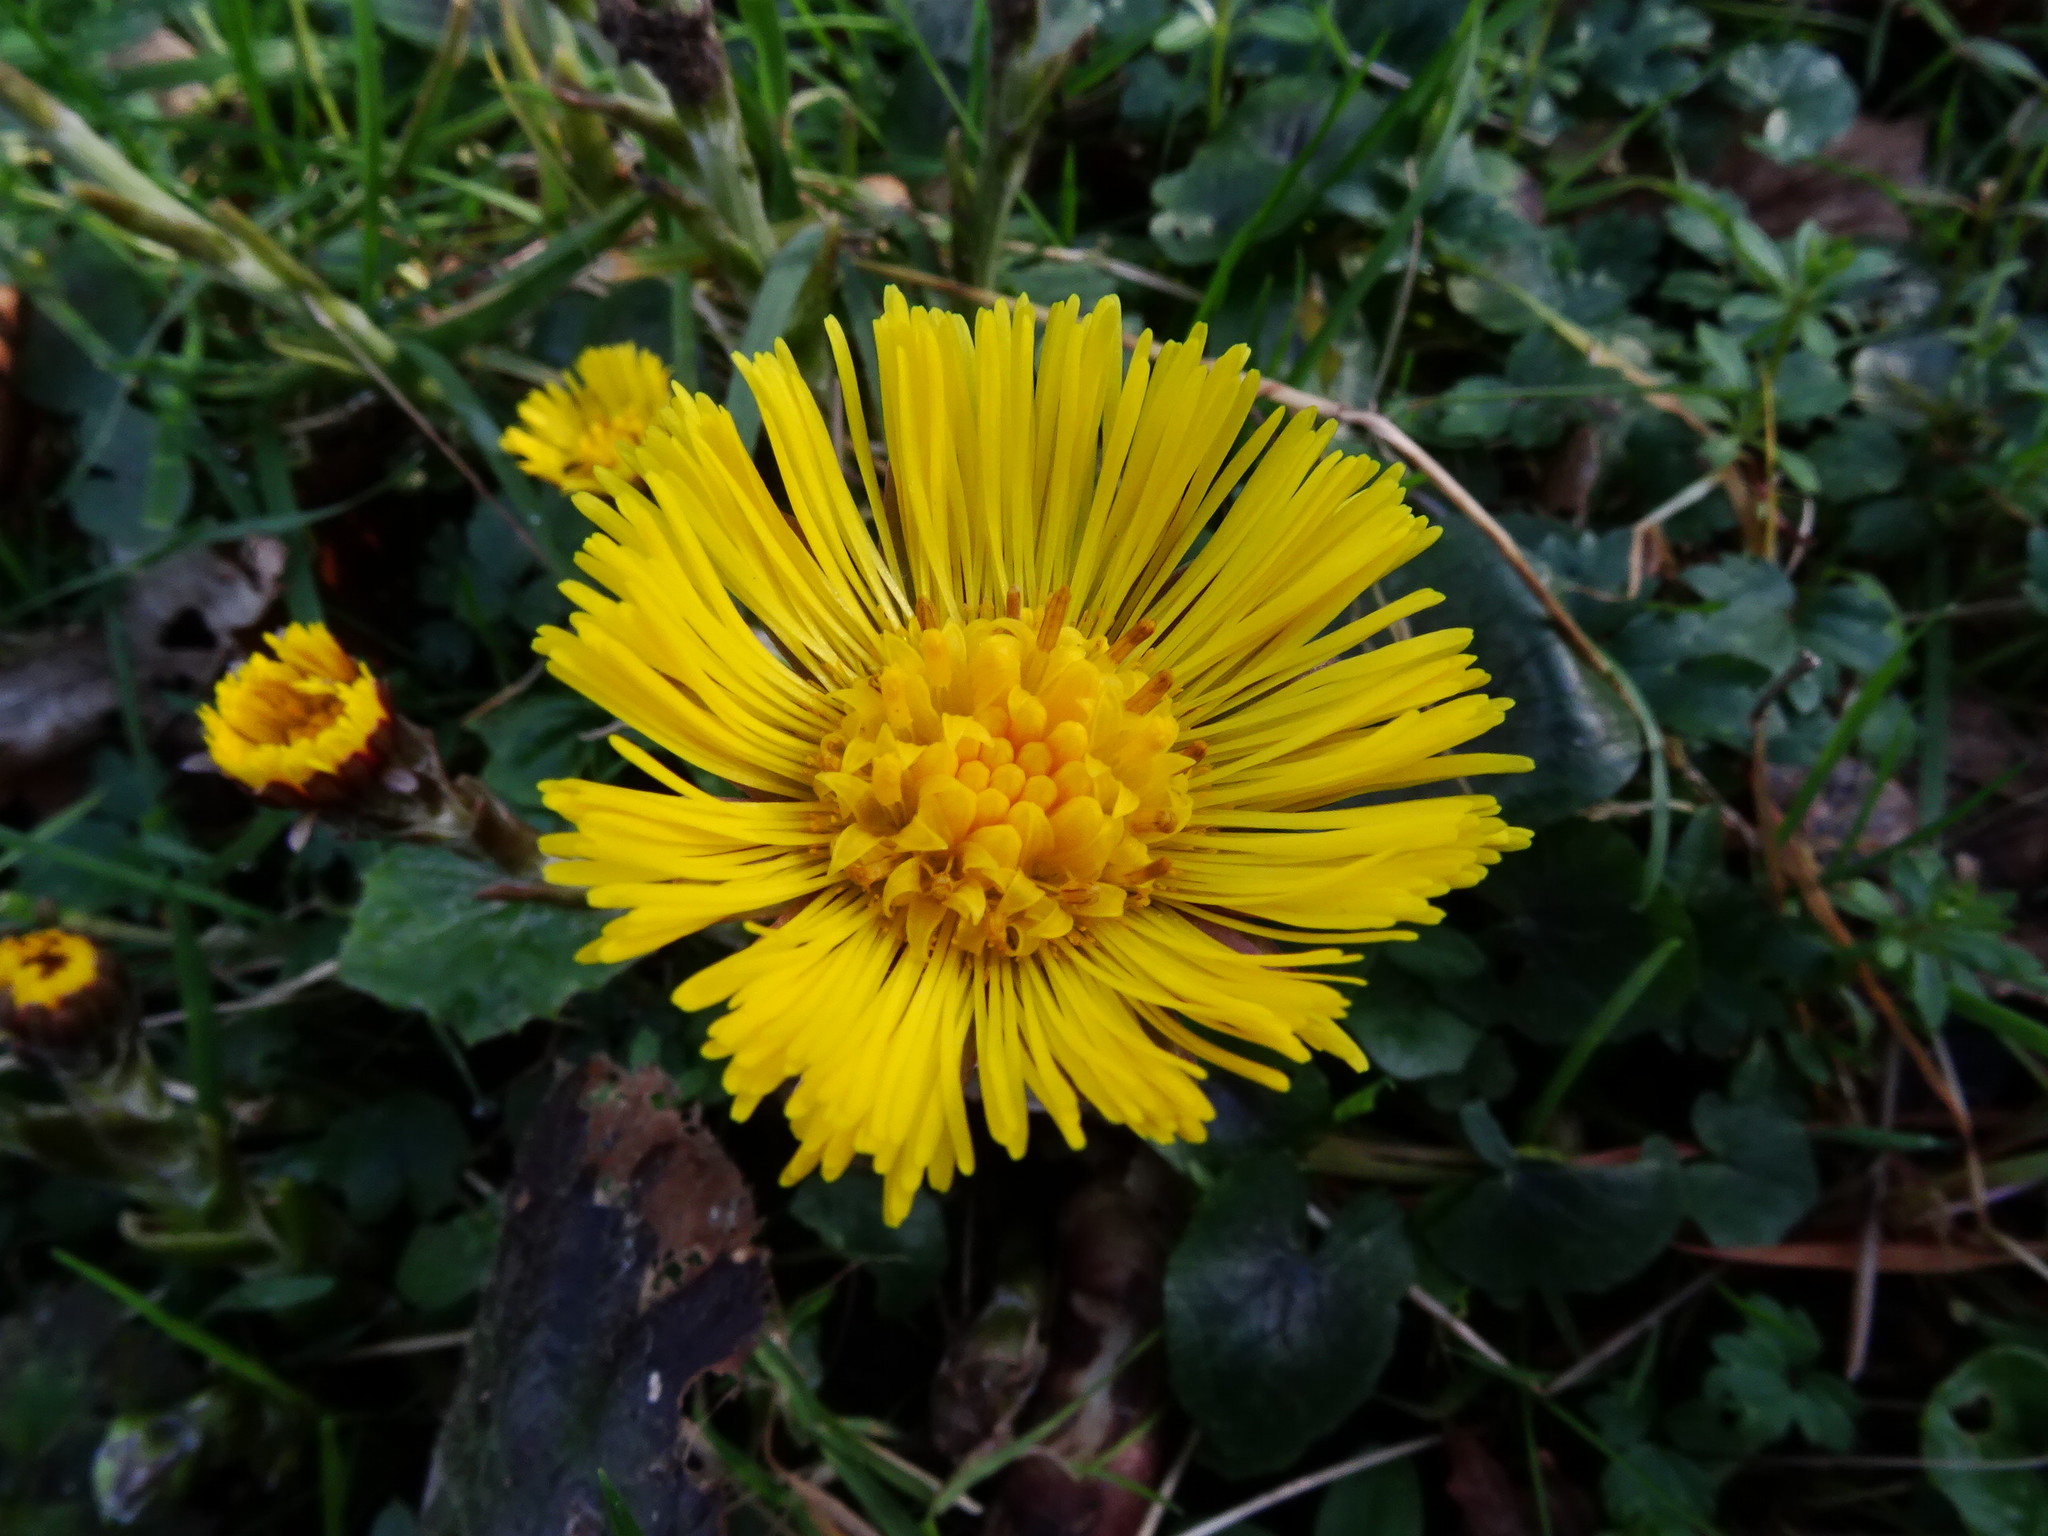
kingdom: Plantae
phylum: Tracheophyta
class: Magnoliopsida
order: Asterales
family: Asteraceae
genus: Tussilago
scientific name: Tussilago farfara
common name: Coltsfoot
